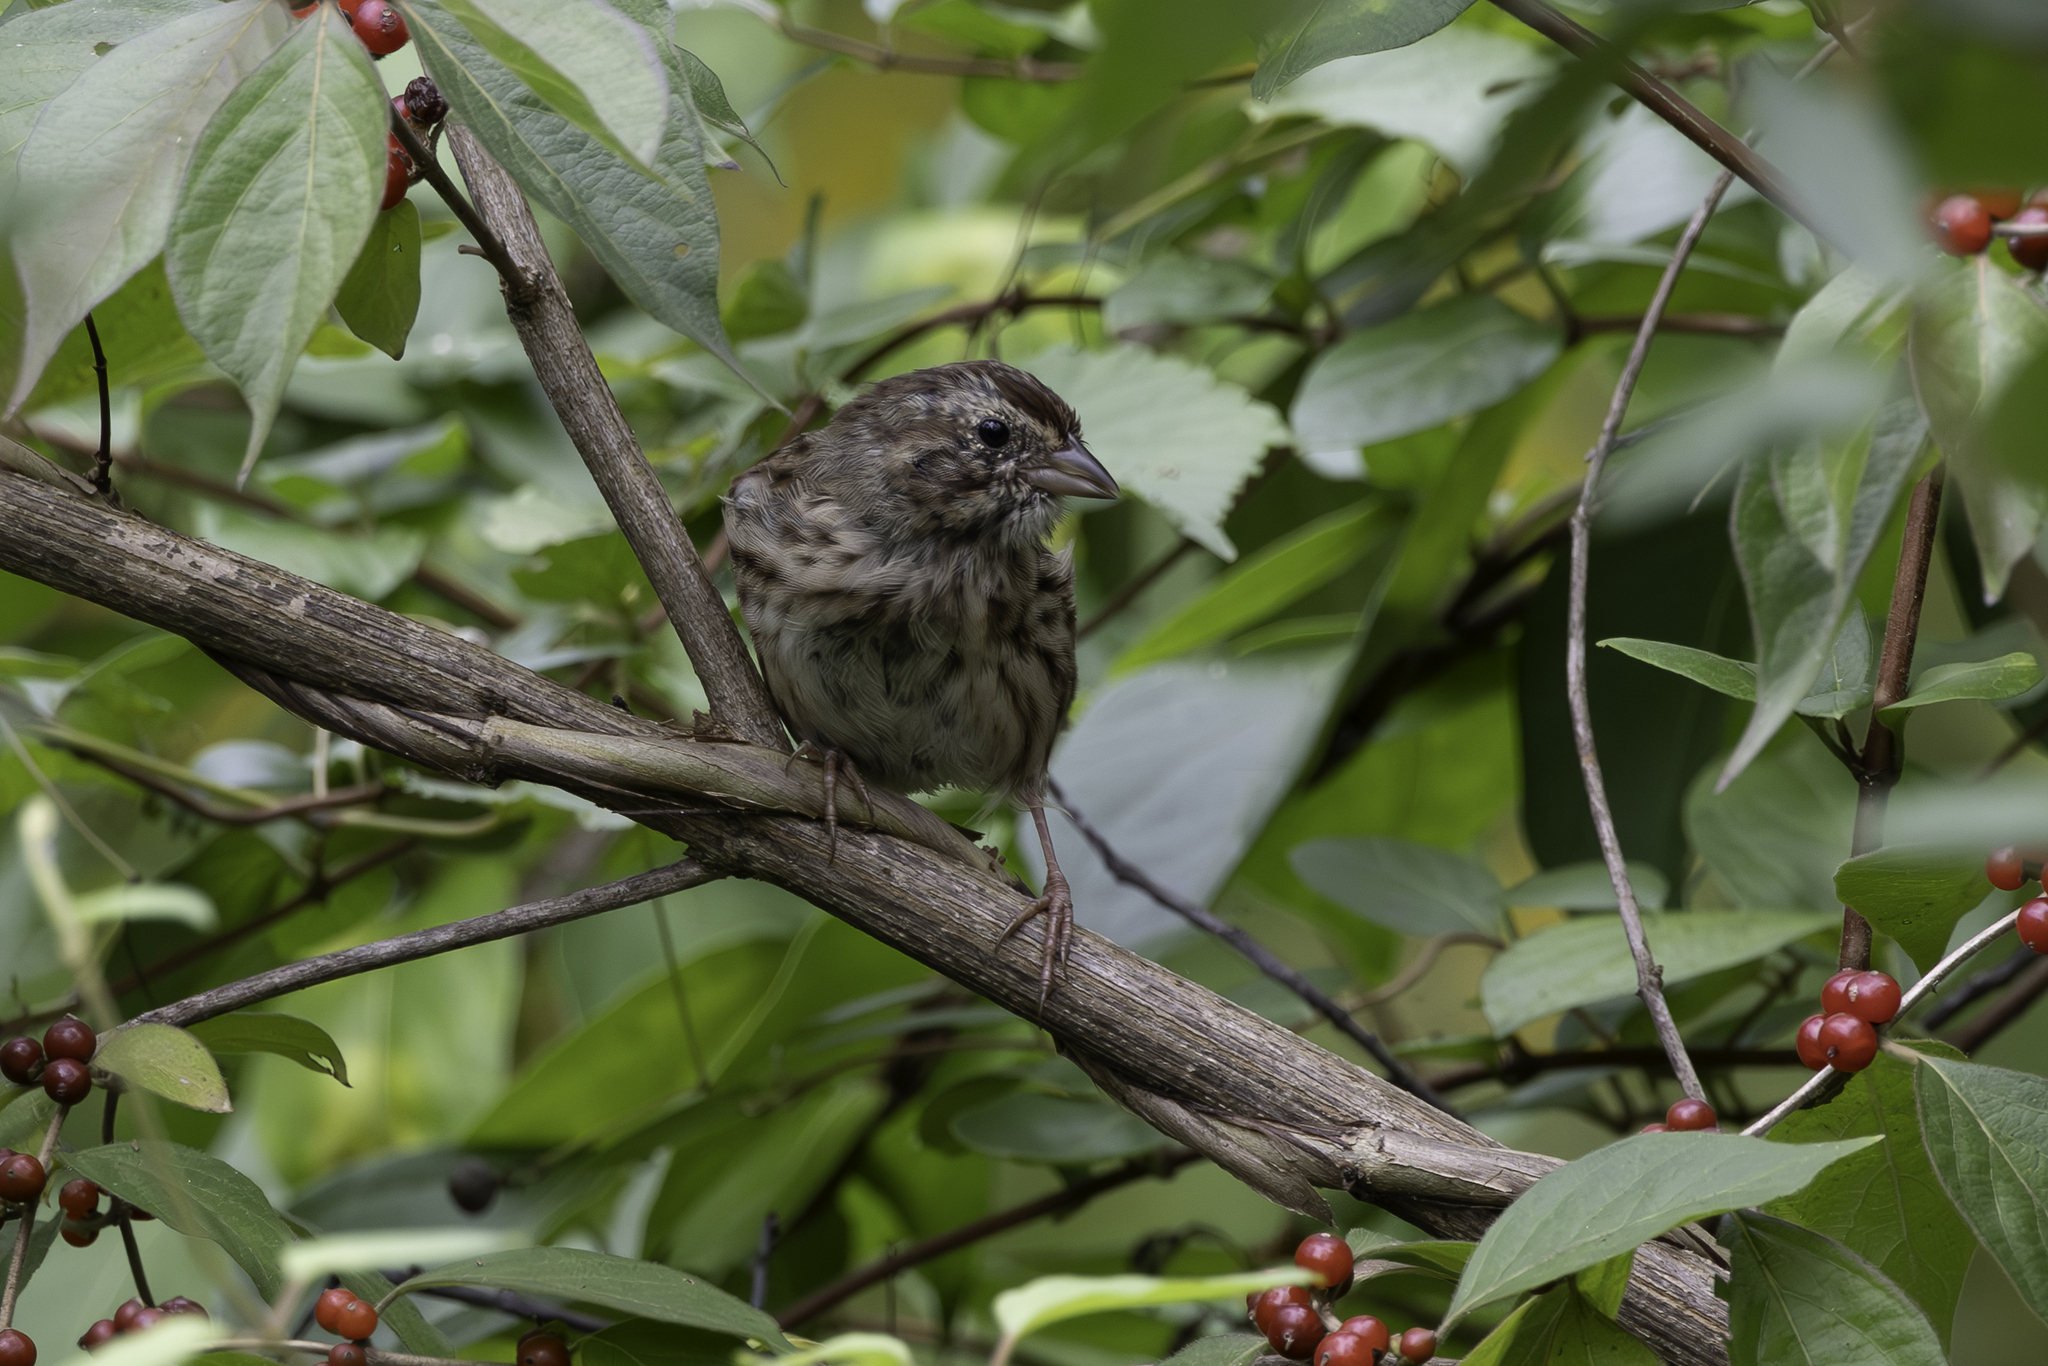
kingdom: Animalia
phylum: Chordata
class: Aves
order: Passeriformes
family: Passerellidae
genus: Melospiza
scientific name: Melospiza melodia
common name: Song sparrow
